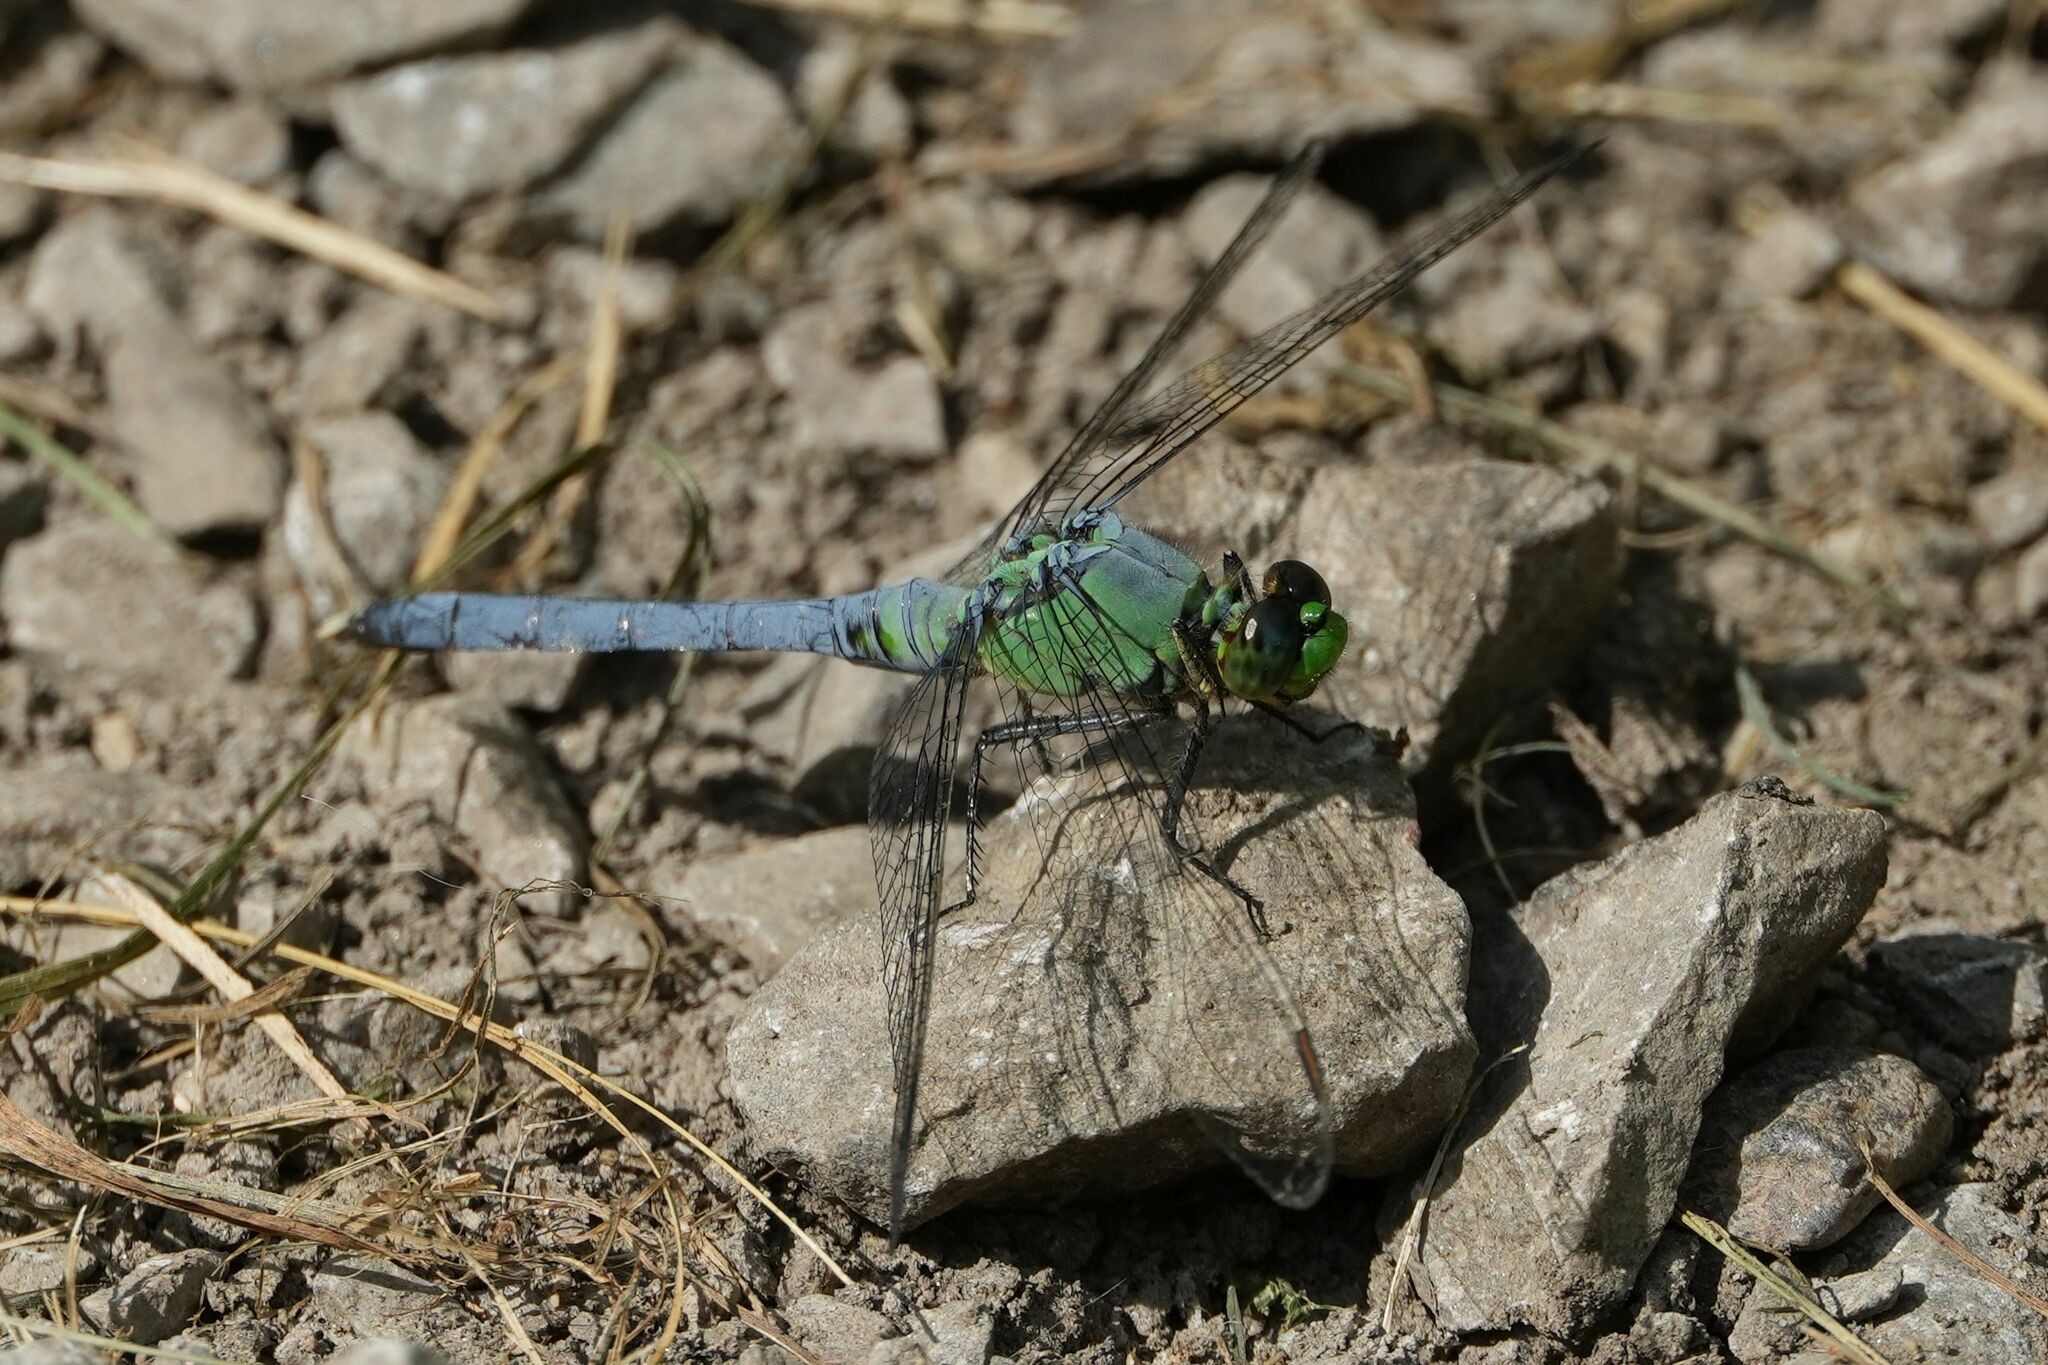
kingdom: Animalia
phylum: Arthropoda
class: Insecta
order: Odonata
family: Libellulidae
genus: Erythemis
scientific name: Erythemis simplicicollis
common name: Eastern pondhawk
